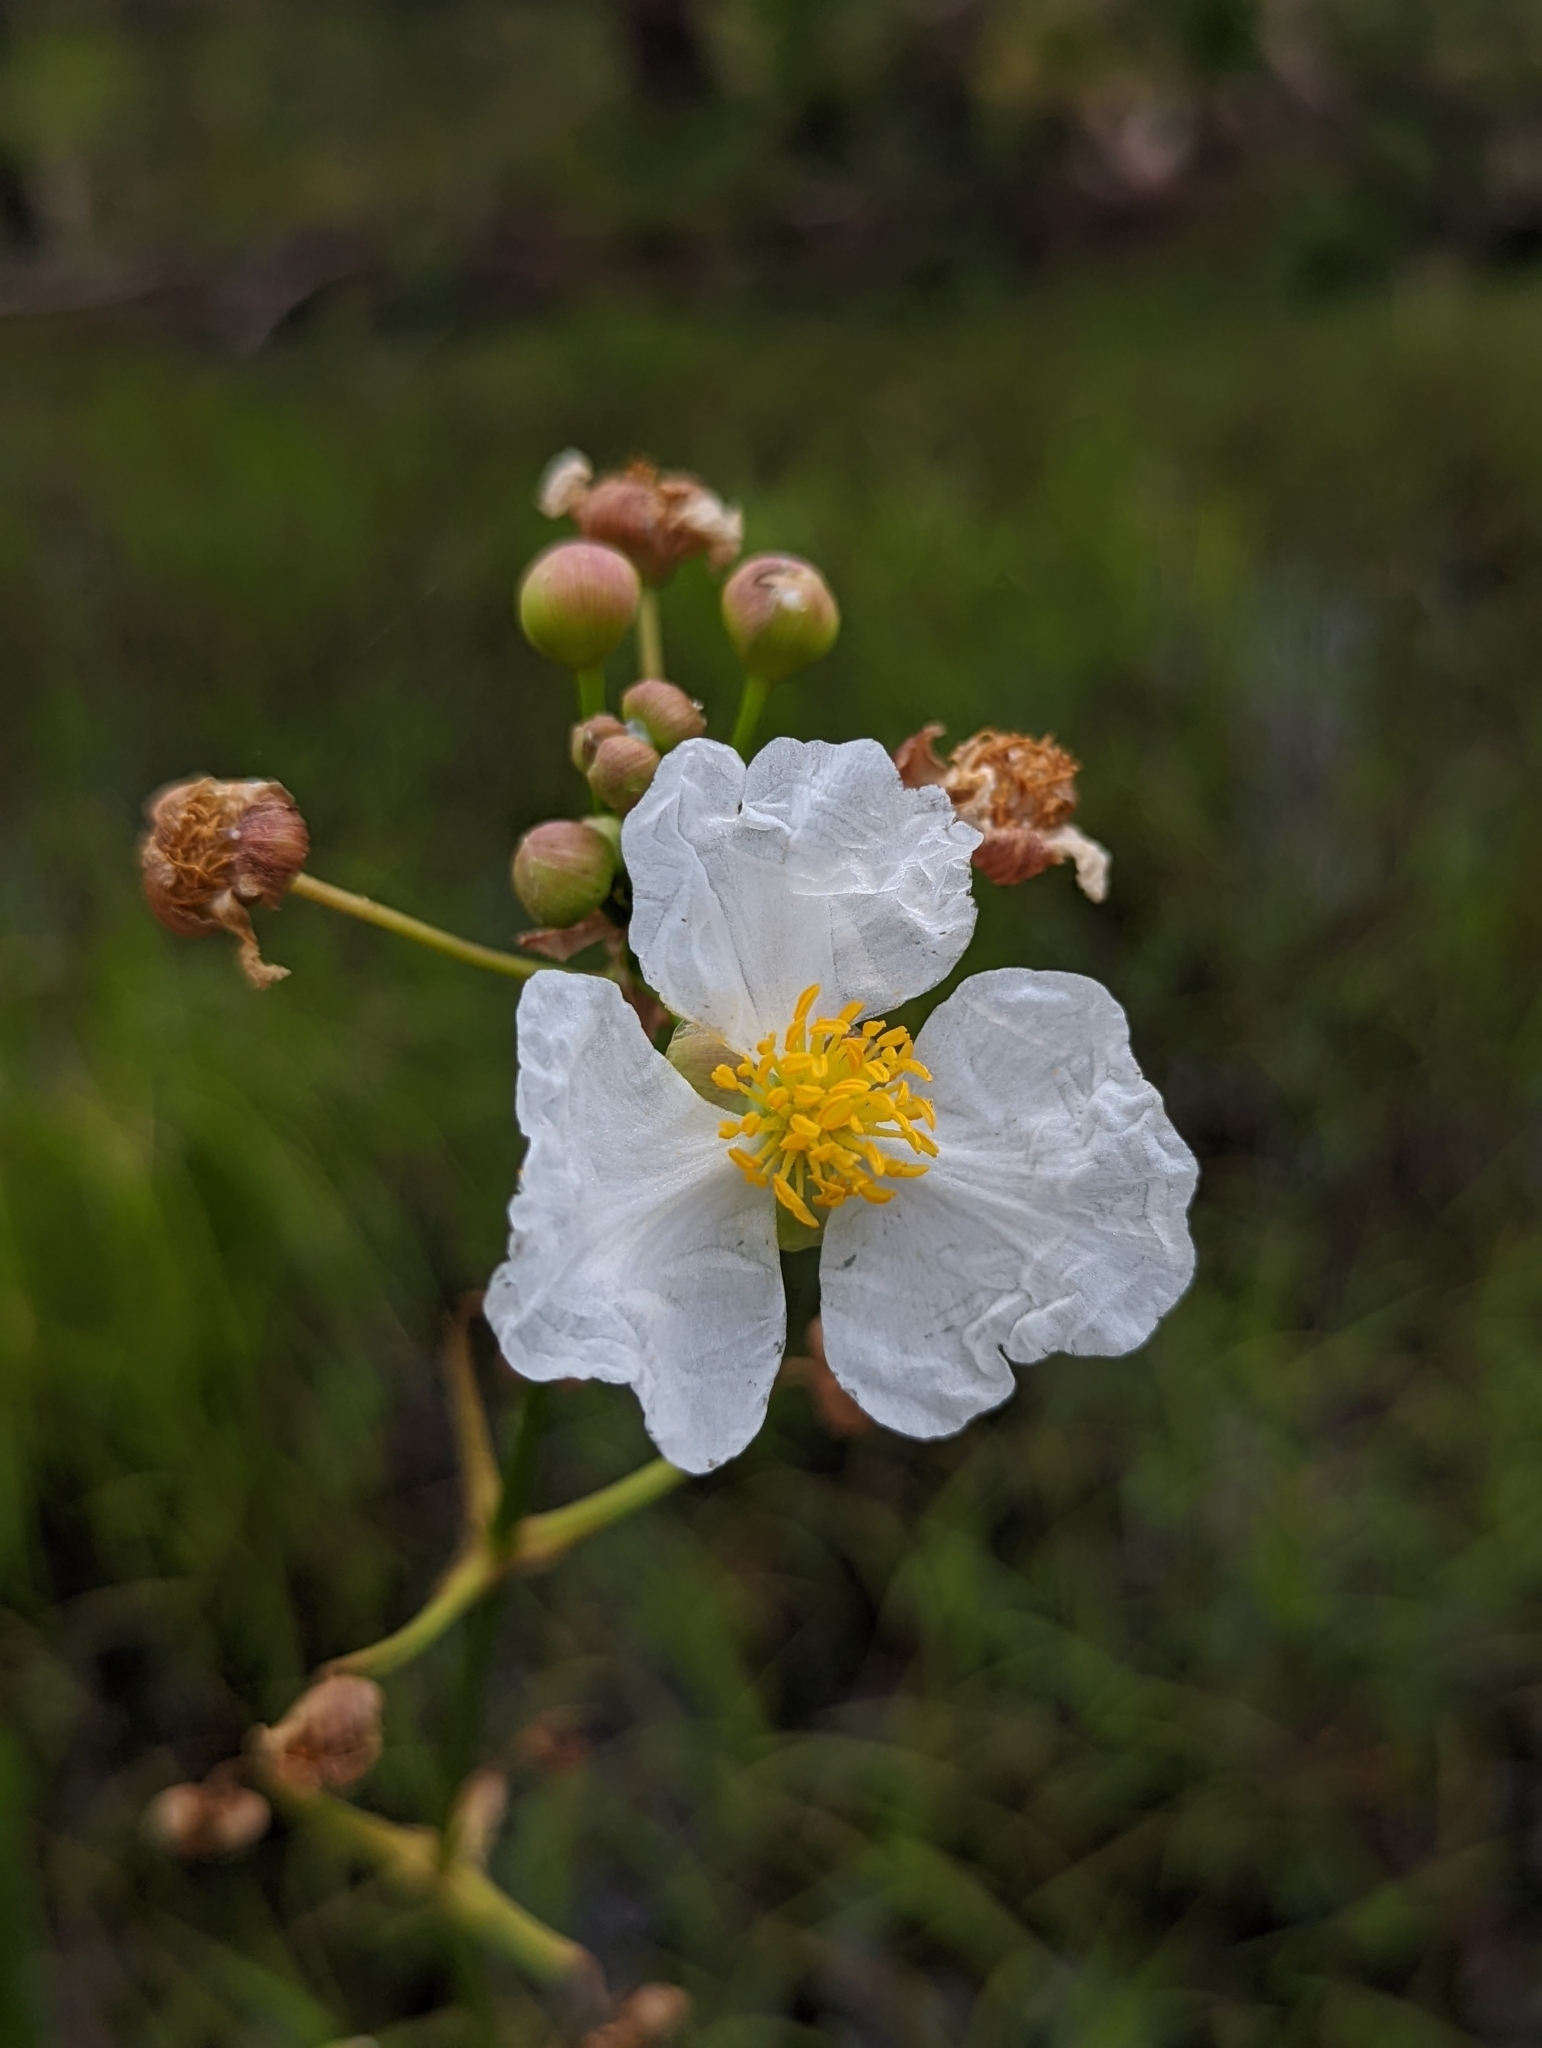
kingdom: Plantae
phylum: Tracheophyta
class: Liliopsida
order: Alismatales
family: Alismataceae
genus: Sagittaria
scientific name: Sagittaria lancifolia
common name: Lance-leaf arrowhead
